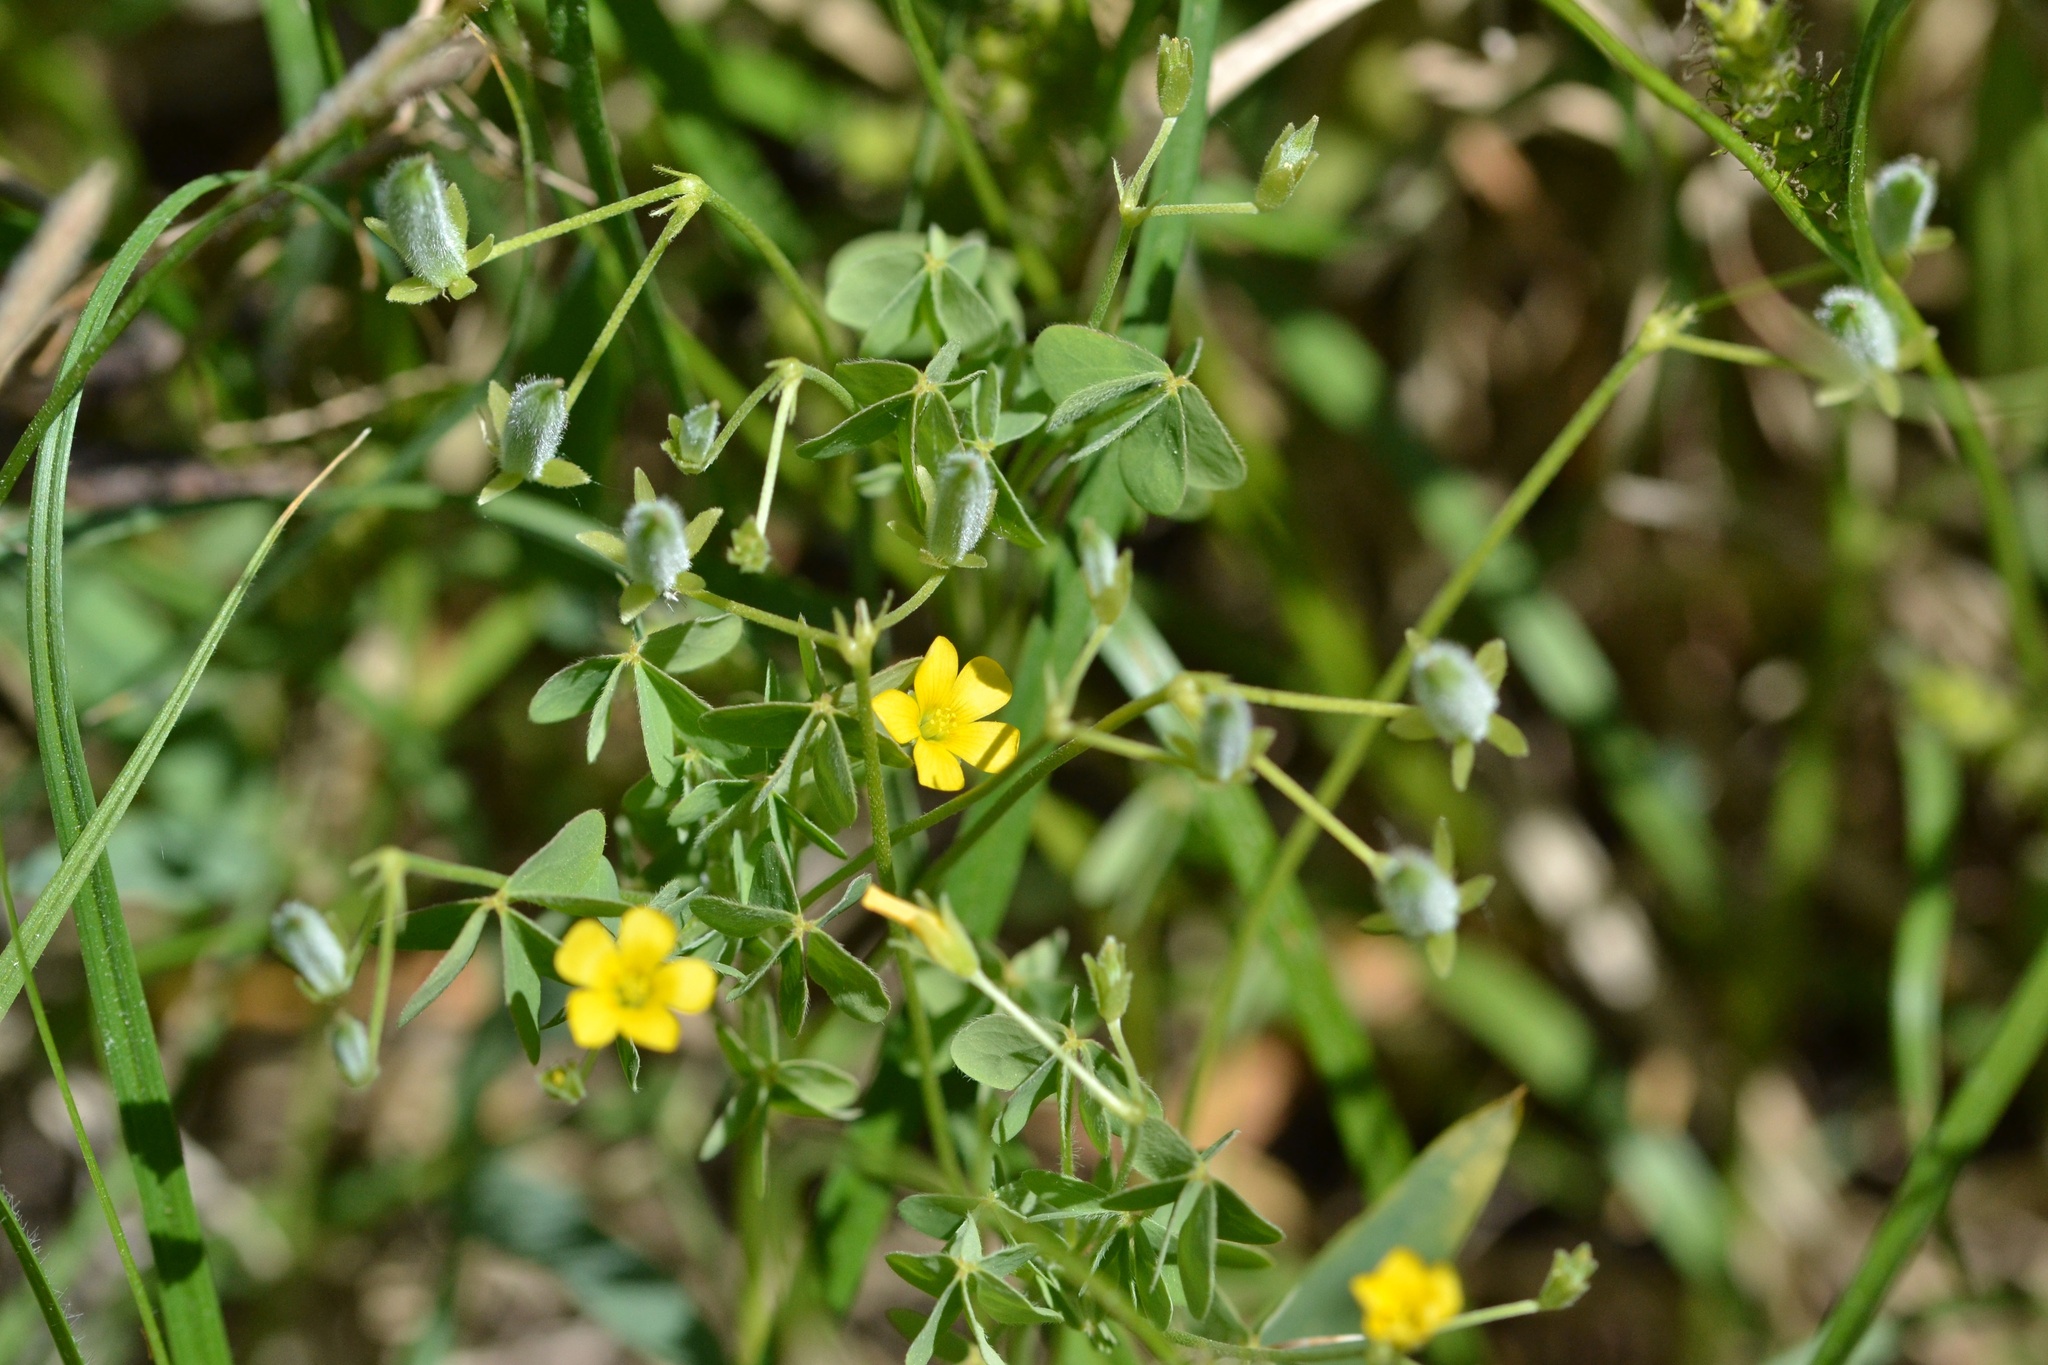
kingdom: Plantae
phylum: Tracheophyta
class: Magnoliopsida
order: Oxalidales
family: Oxalidaceae
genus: Oxalis
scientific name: Oxalis dillenii
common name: Sussex yellow-sorrel
